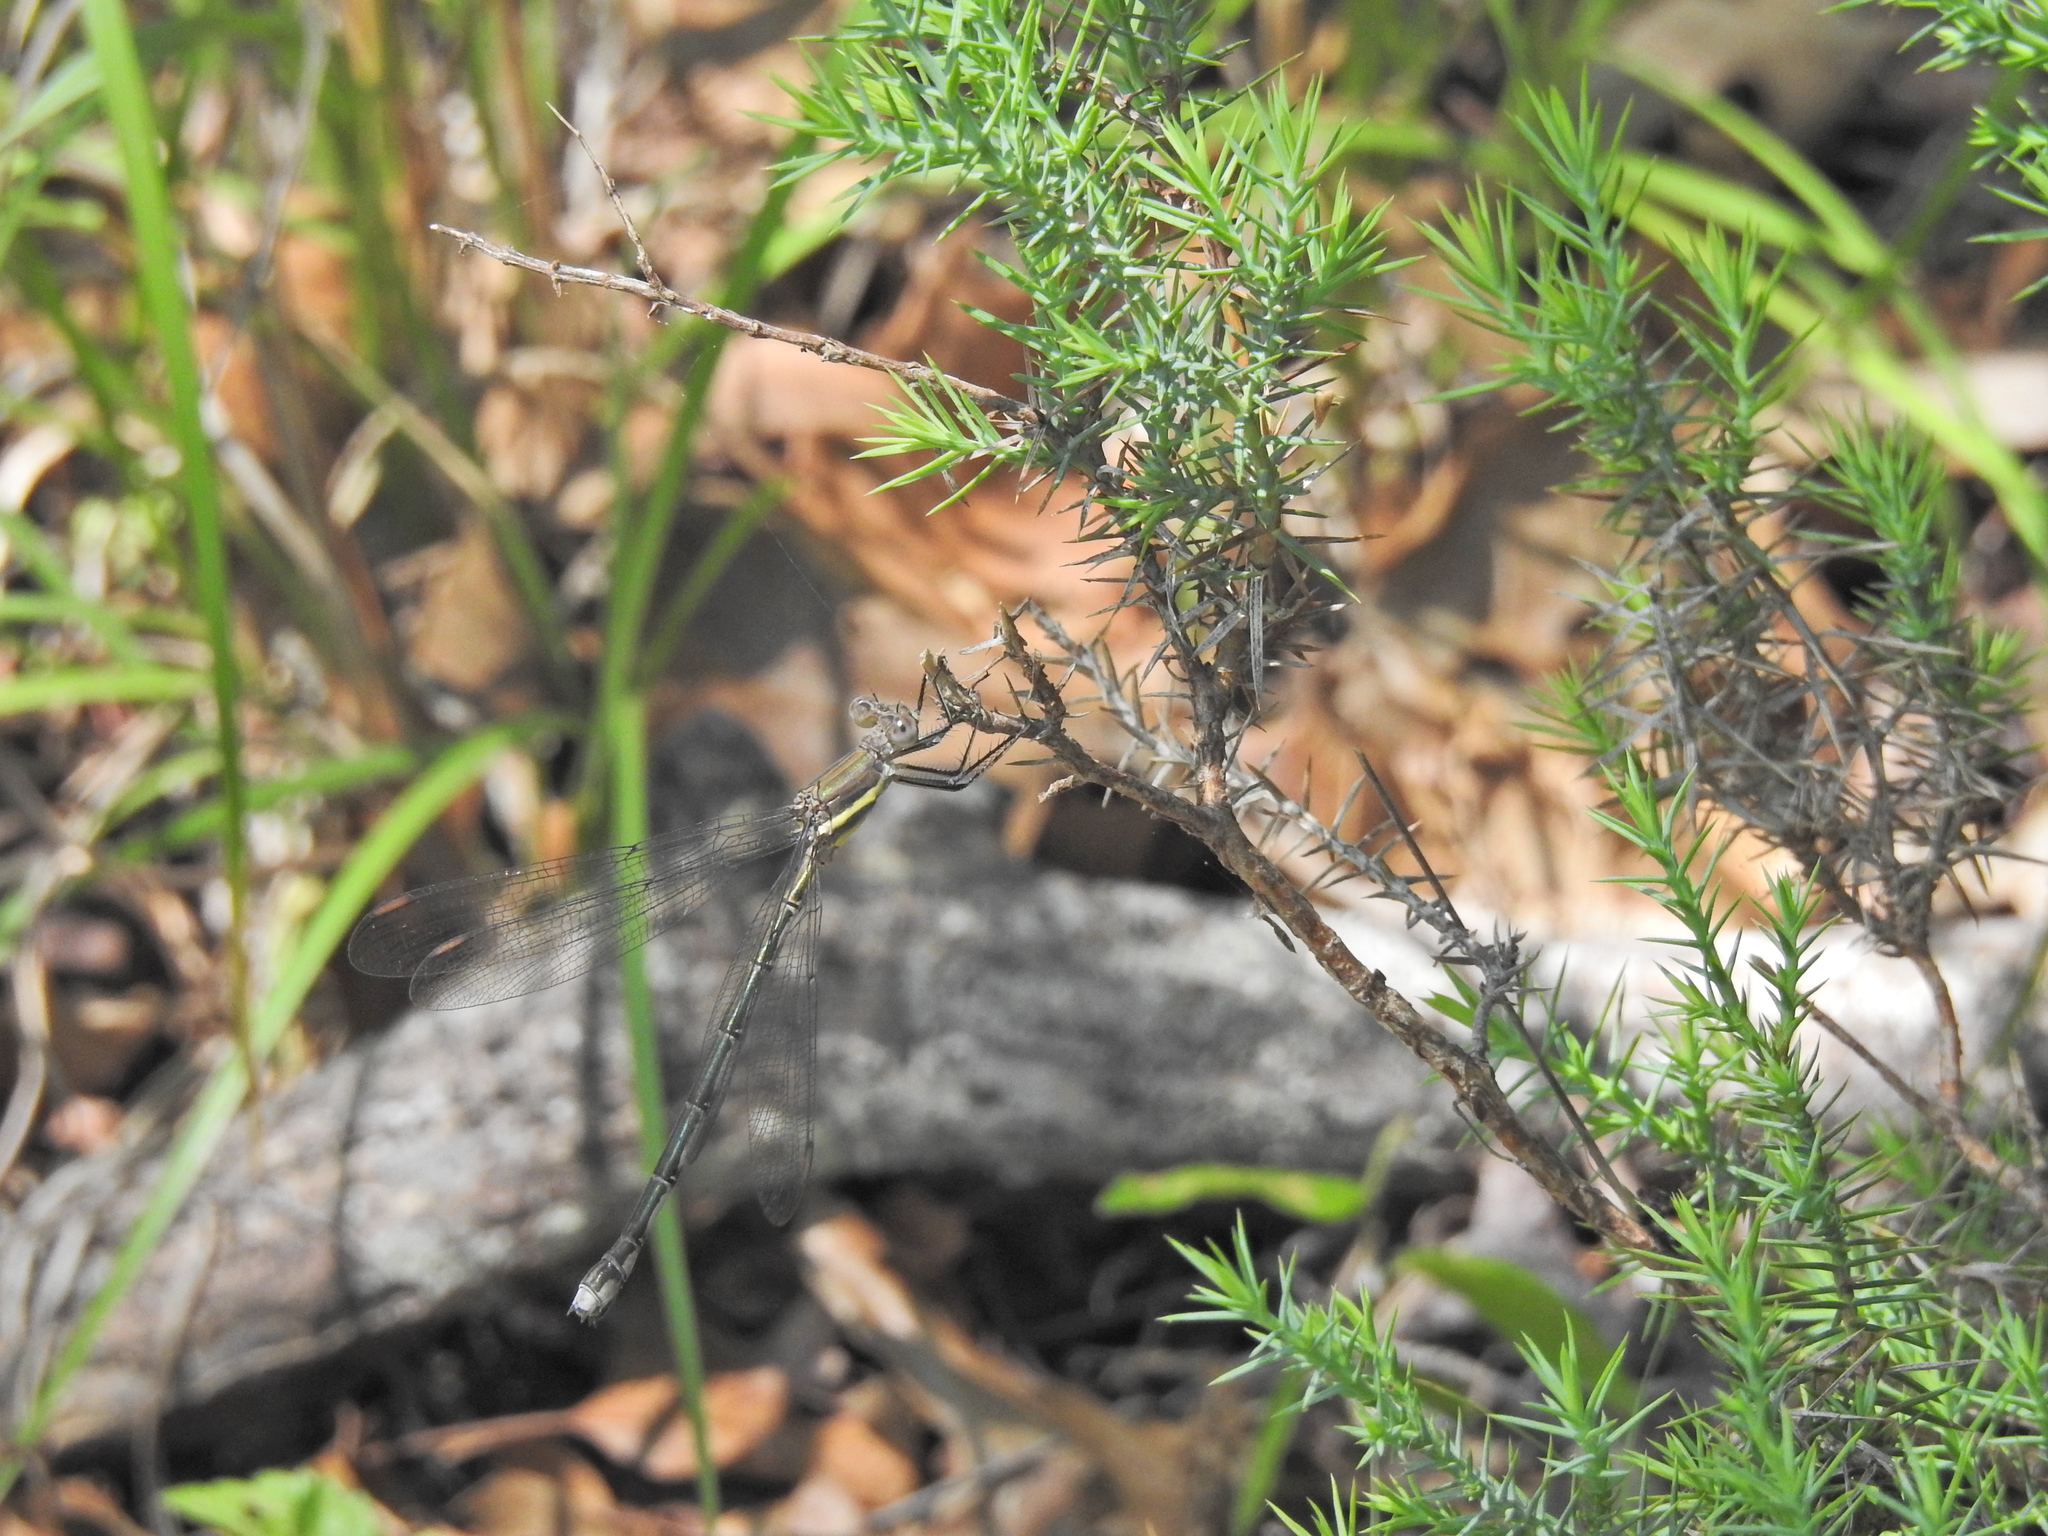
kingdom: Animalia
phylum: Arthropoda
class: Insecta
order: Odonata
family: Lestidae
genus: Archilestes
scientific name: Archilestes grandis
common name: Great spreadwing
